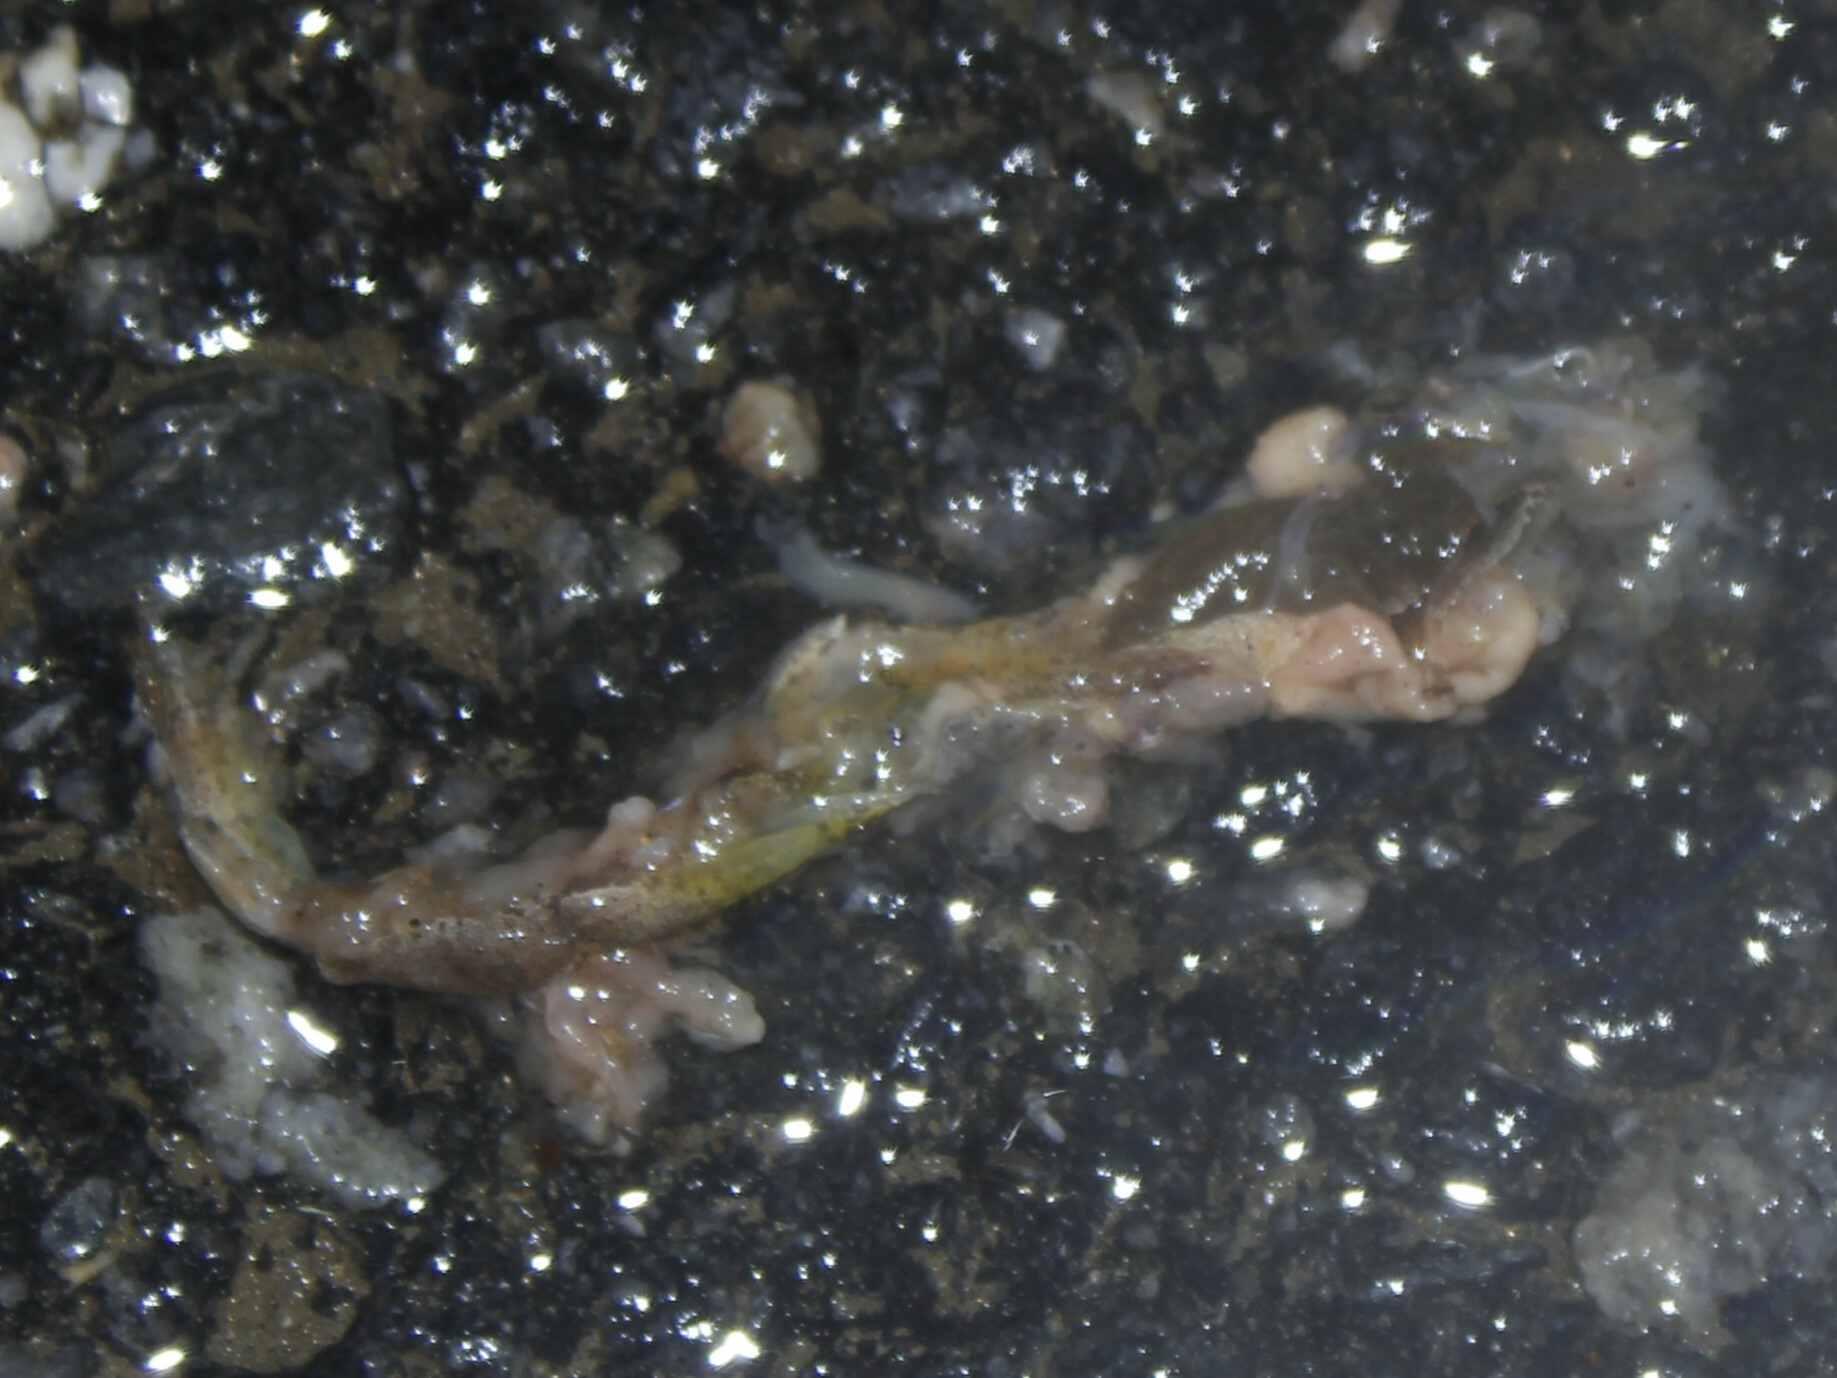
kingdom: Animalia
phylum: Chordata
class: Amphibia
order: Anura
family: Hylidae
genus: Pseudacris
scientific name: Pseudacris crucifer
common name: Spring peeper
